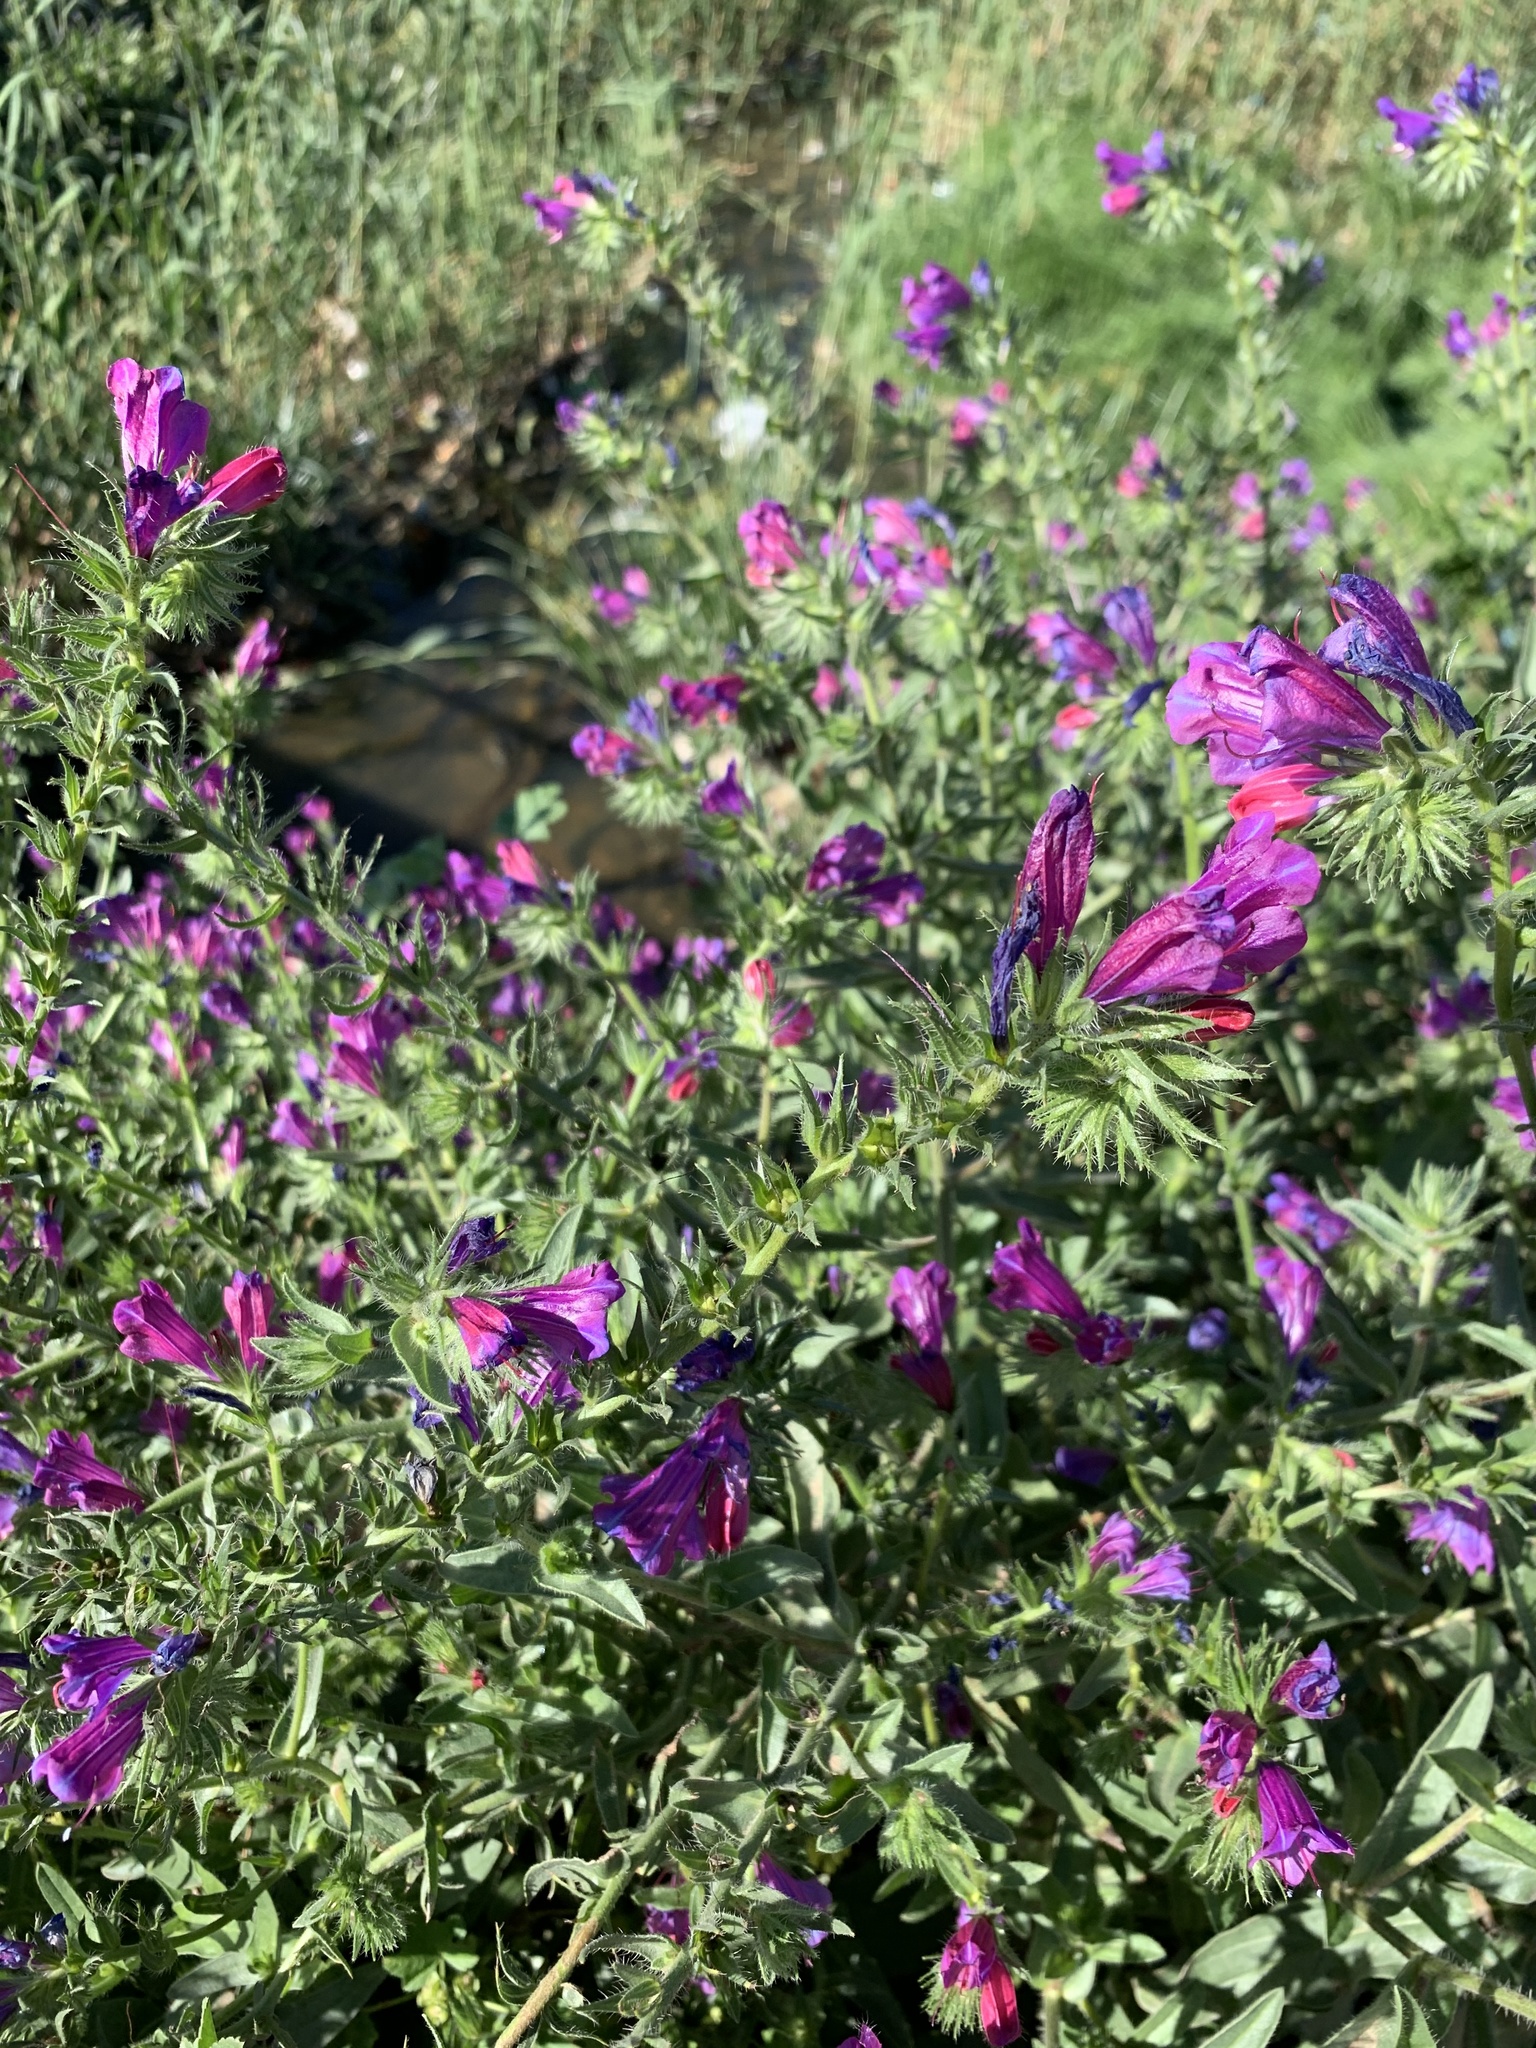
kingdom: Plantae
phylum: Tracheophyta
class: Magnoliopsida
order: Boraginales
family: Boraginaceae
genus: Echium
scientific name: Echium plantagineum
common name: Purple viper's-bugloss
